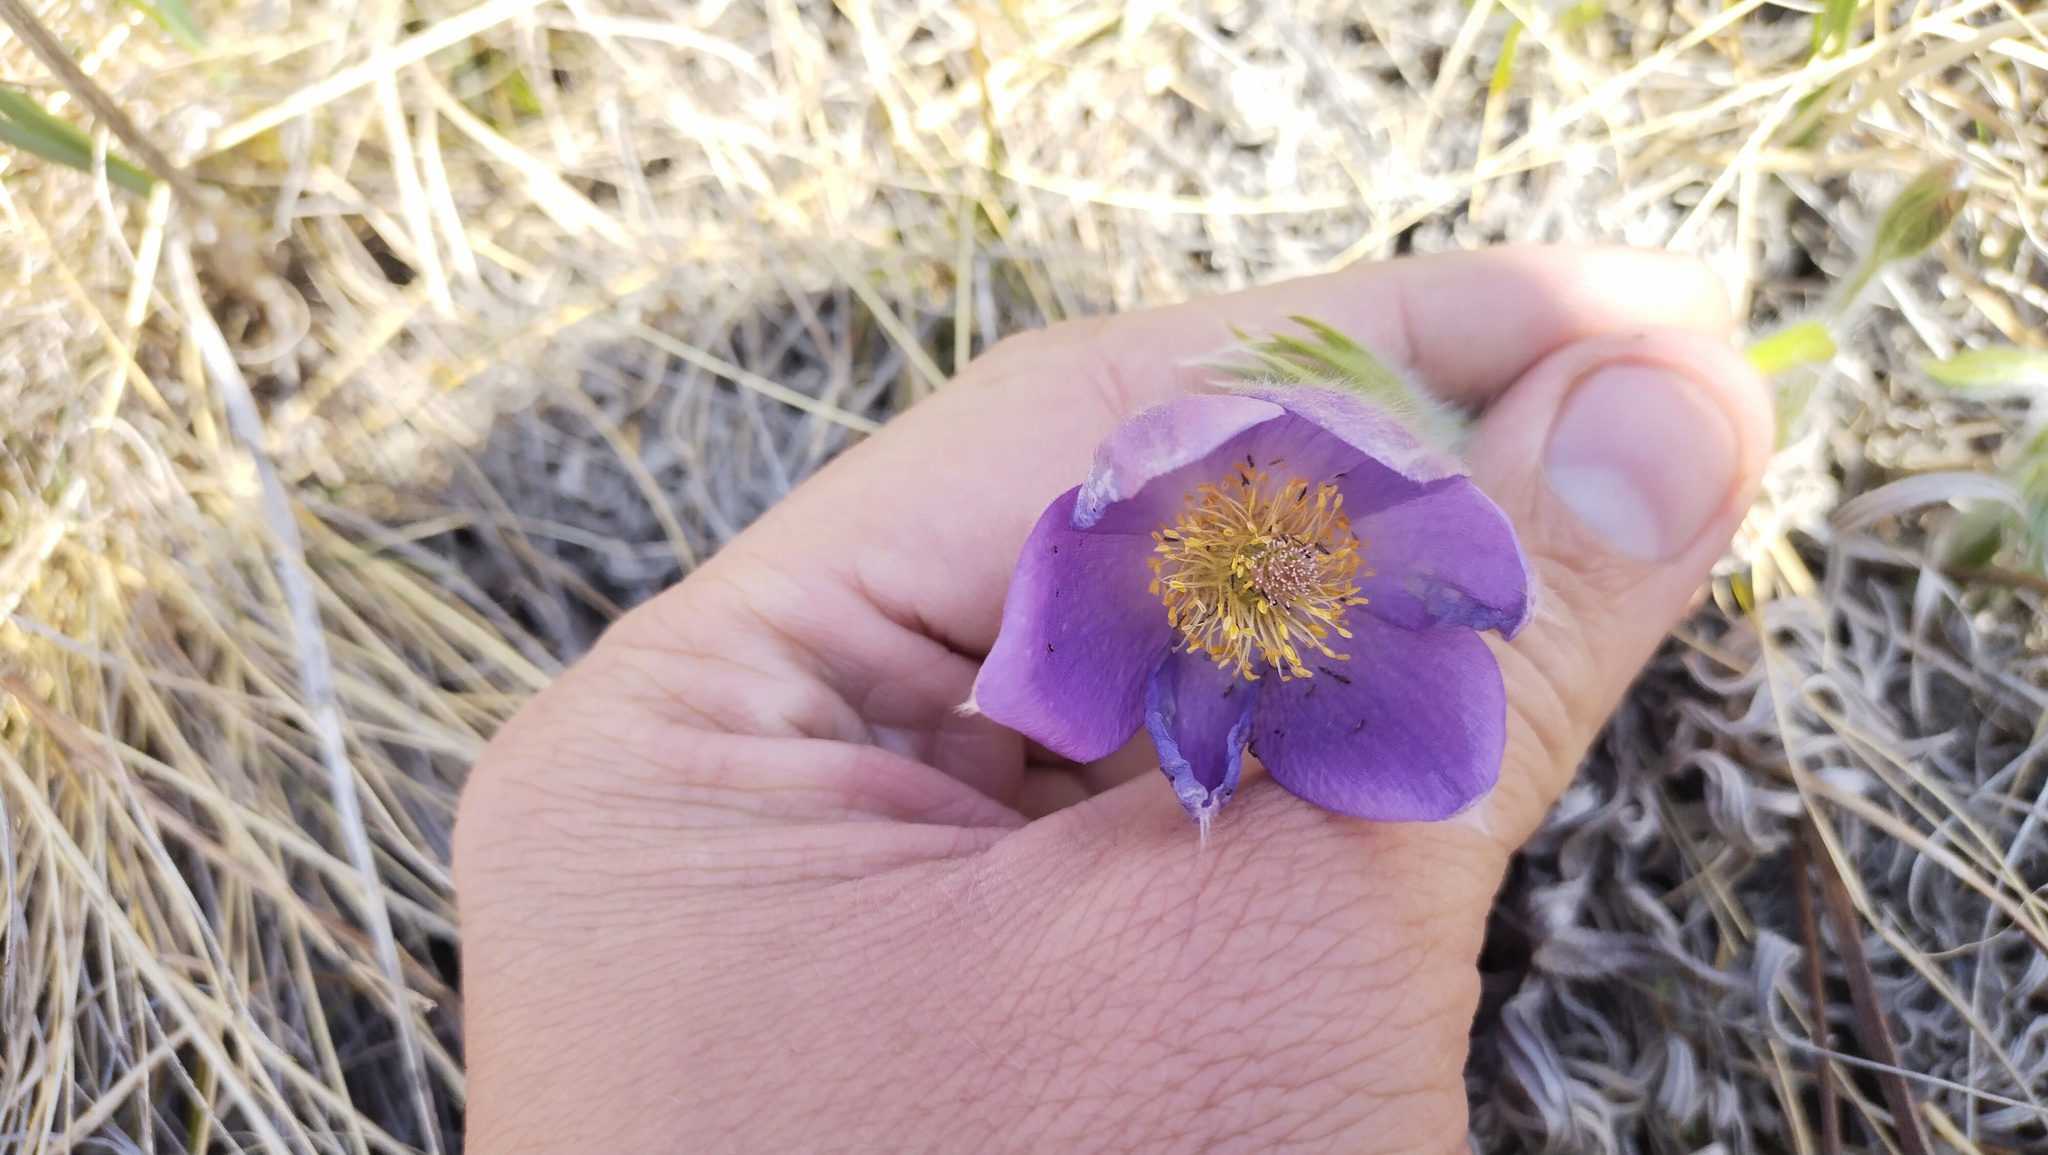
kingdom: Plantae
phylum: Tracheophyta
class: Magnoliopsida
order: Ranunculales
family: Ranunculaceae
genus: Pulsatilla
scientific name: Pulsatilla patens
